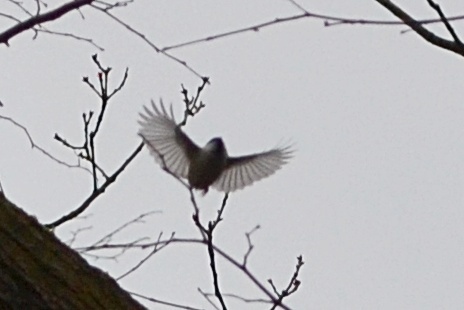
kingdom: Animalia
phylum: Chordata
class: Aves
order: Passeriformes
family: Paridae
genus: Poecile
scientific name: Poecile palustris
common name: Marsh tit
